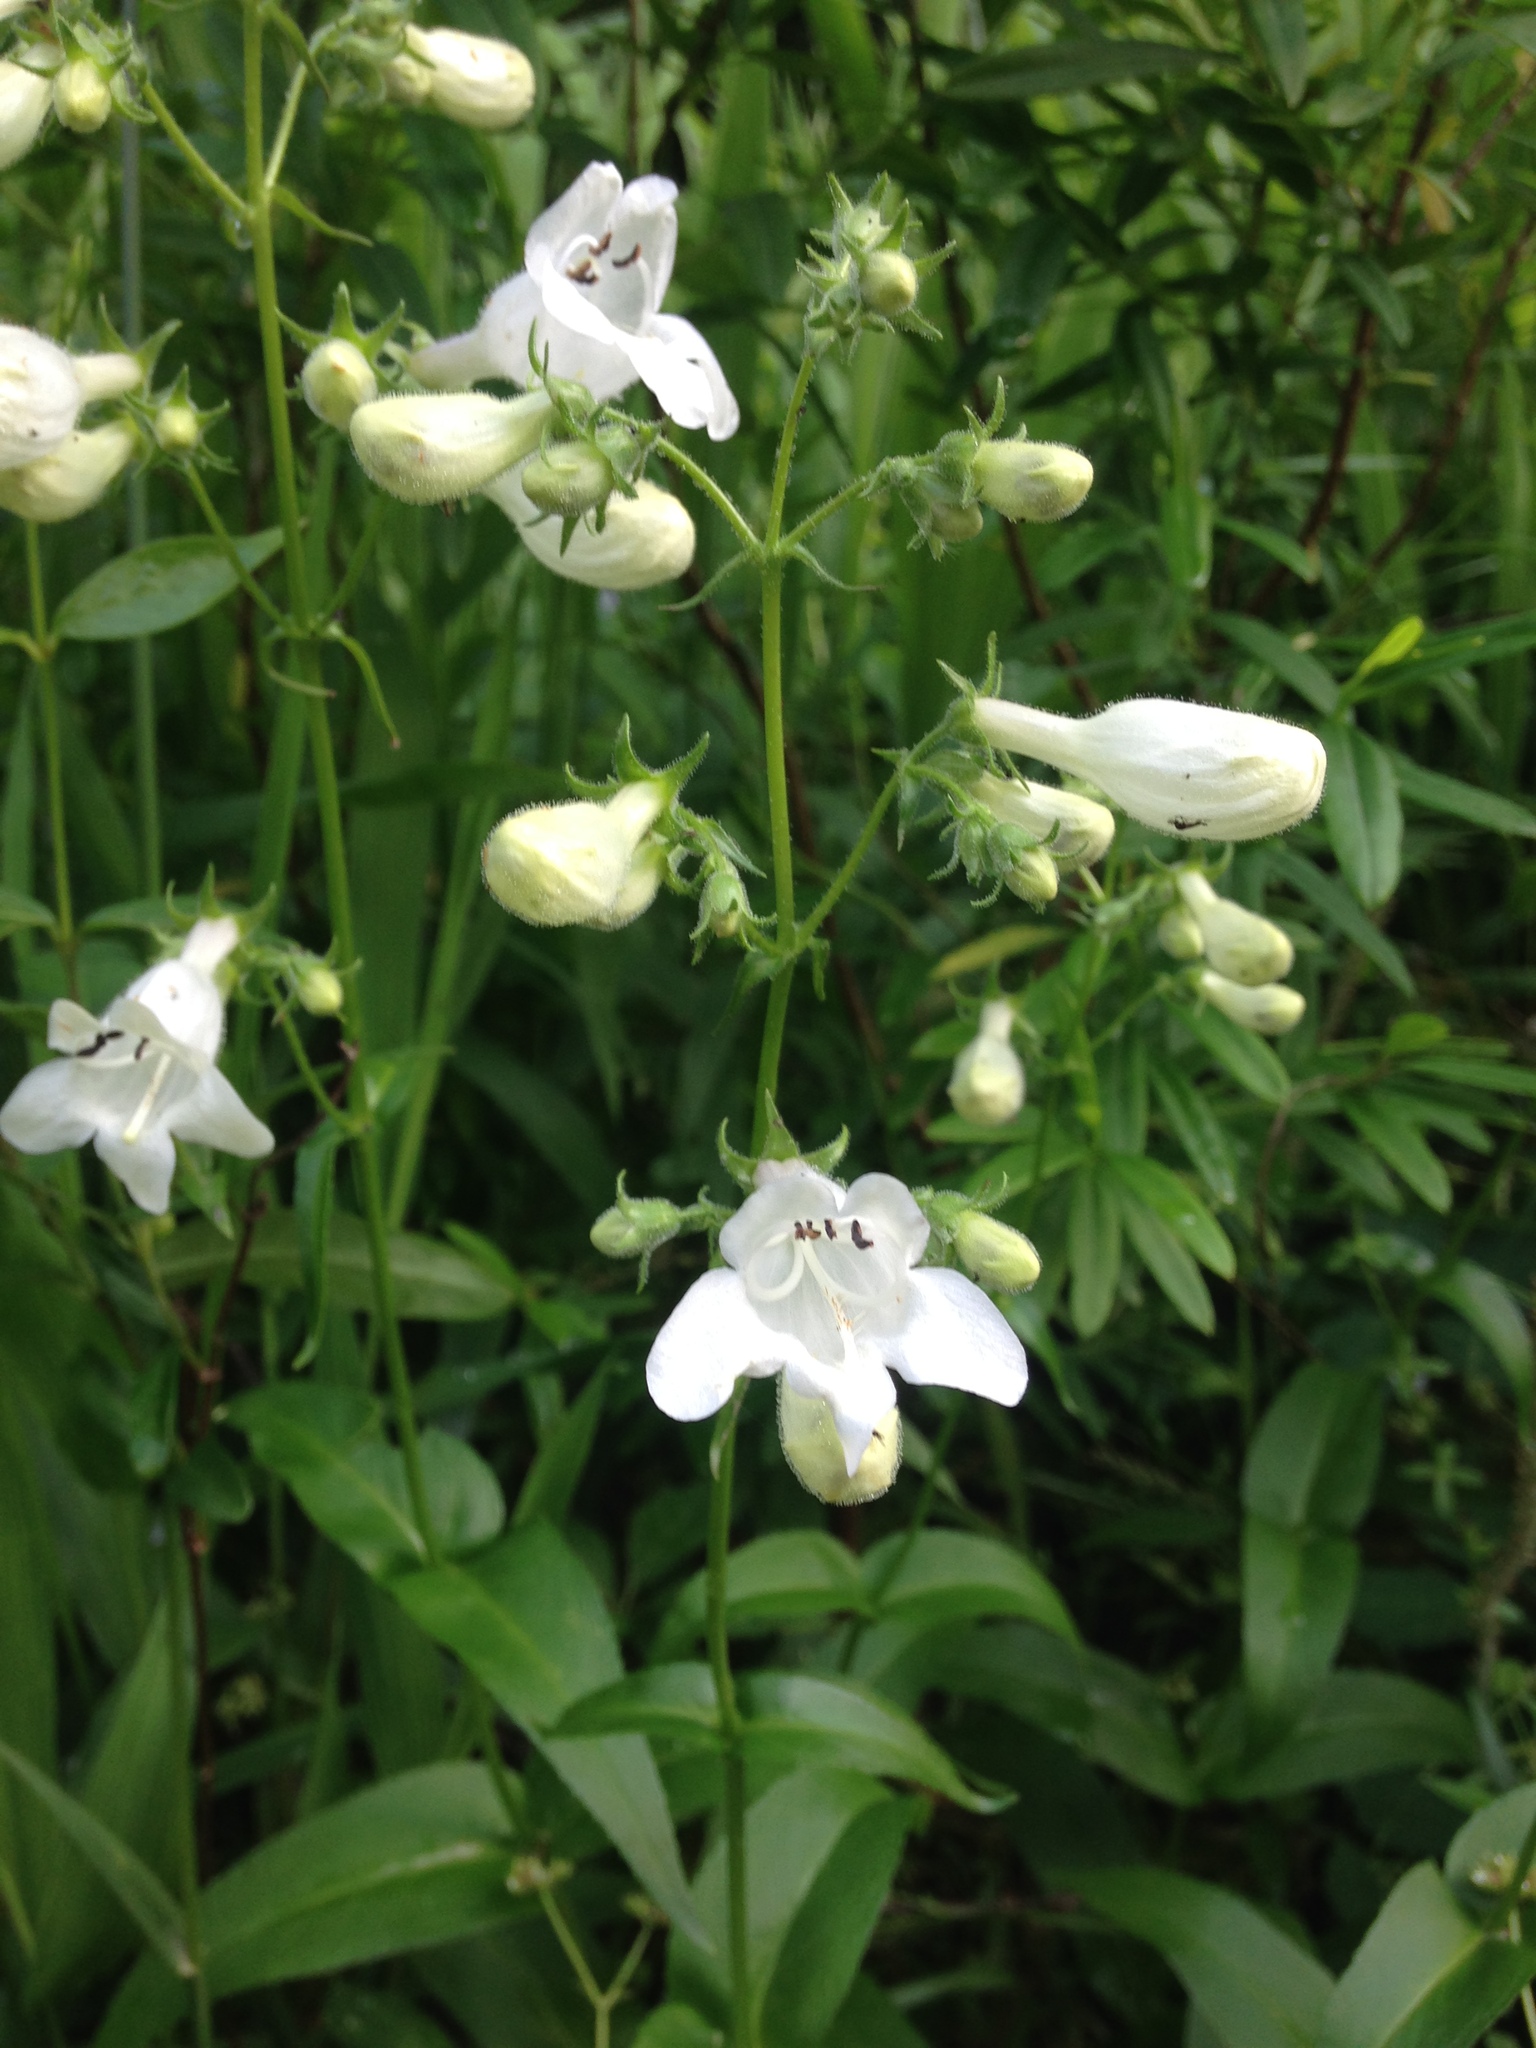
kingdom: Plantae
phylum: Tracheophyta
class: Magnoliopsida
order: Lamiales
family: Plantaginaceae
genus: Penstemon
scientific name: Penstemon digitalis
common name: Foxglove beardtongue
